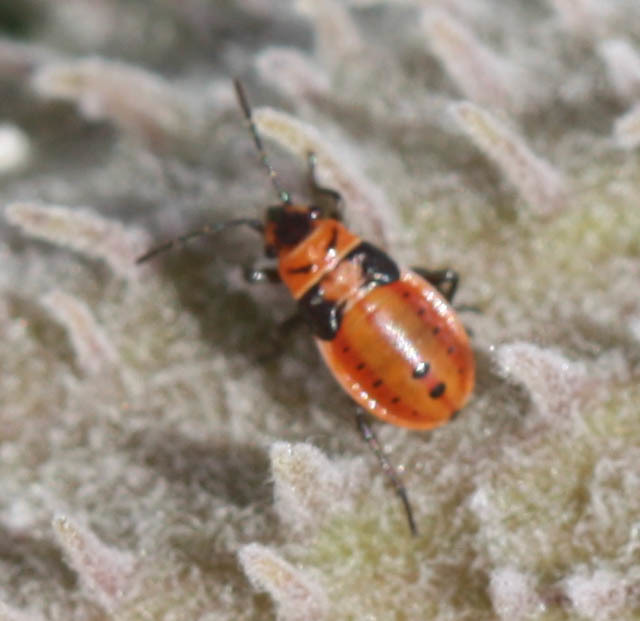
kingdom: Animalia
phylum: Arthropoda
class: Insecta
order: Hemiptera
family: Lygaeidae
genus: Lygaeus
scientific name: Lygaeus kalmii
